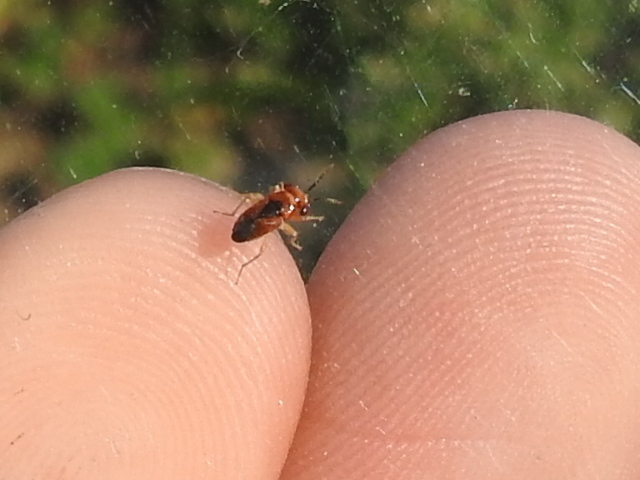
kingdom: Animalia
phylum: Arthropoda
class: Insecta
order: Hemiptera
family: Geocoridae
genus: Isthmocoris
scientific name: Isthmocoris imperialis
